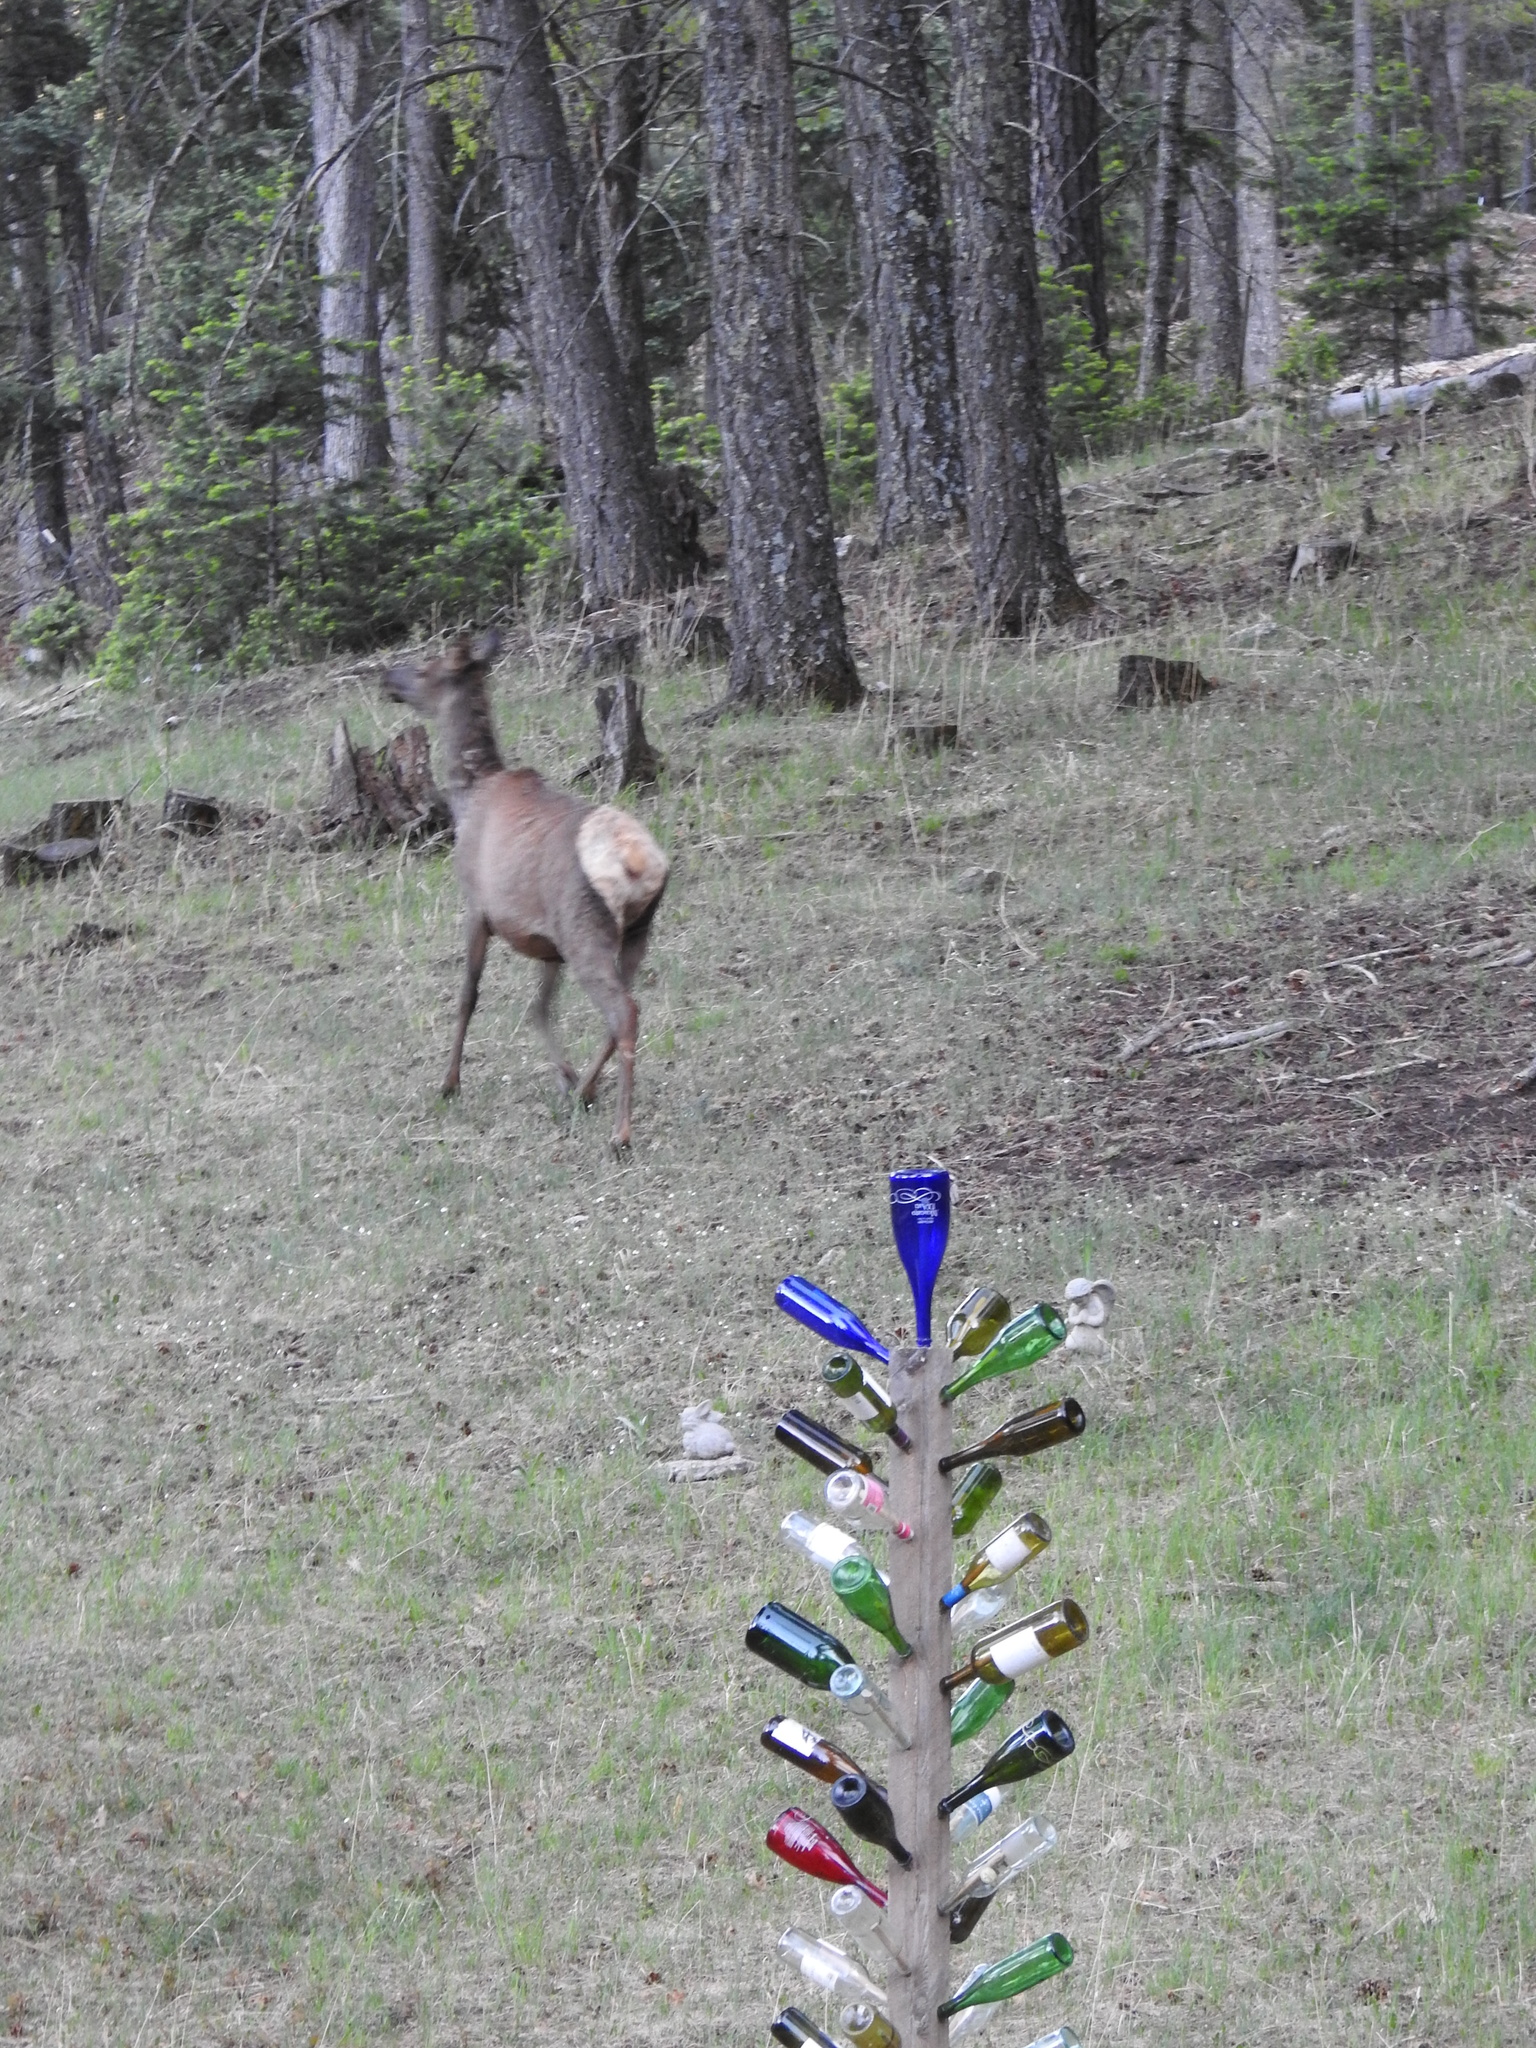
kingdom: Animalia
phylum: Chordata
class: Mammalia
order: Artiodactyla
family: Cervidae
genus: Cervus
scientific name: Cervus elaphus
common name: Red deer
